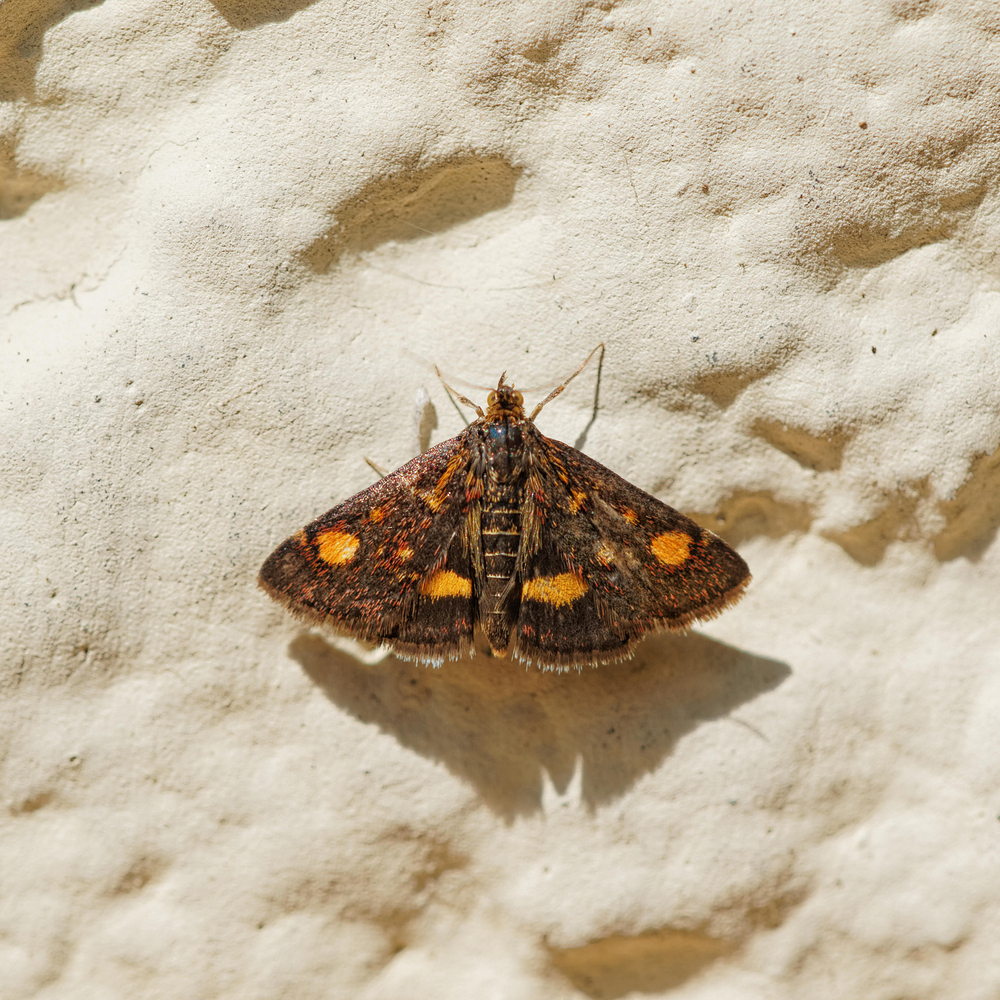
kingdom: Animalia
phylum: Arthropoda
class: Insecta
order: Lepidoptera
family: Crambidae
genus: Pyrausta
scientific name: Pyrausta aurata
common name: Small purple & gold
